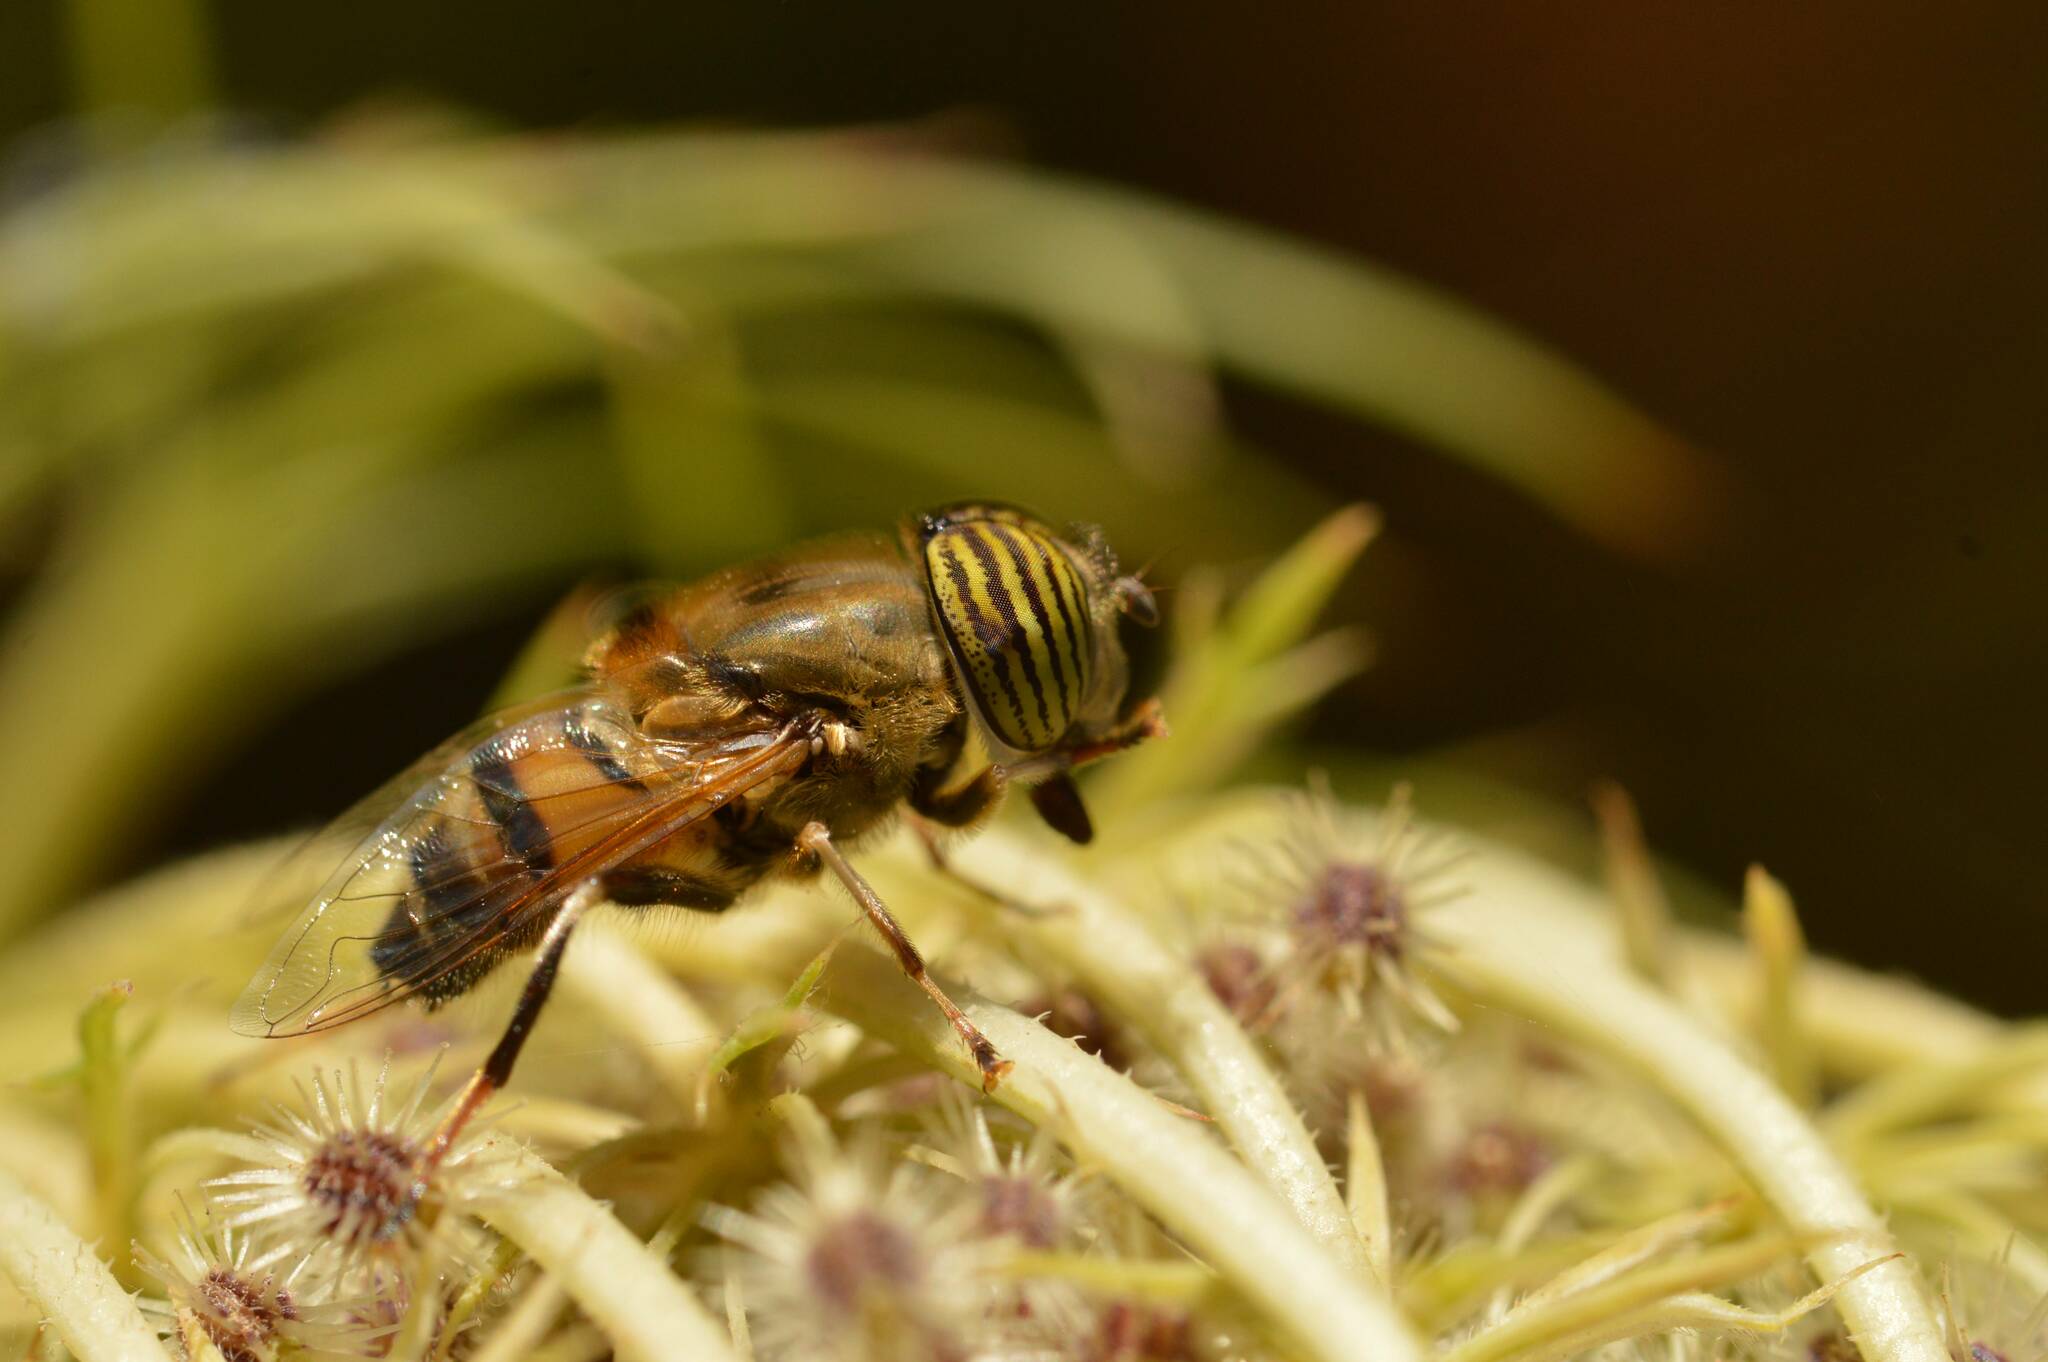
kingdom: Animalia
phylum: Arthropoda
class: Insecta
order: Diptera
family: Syrphidae
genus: Eristalinus
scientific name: Eristalinus taeniops
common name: Syrphid fly
